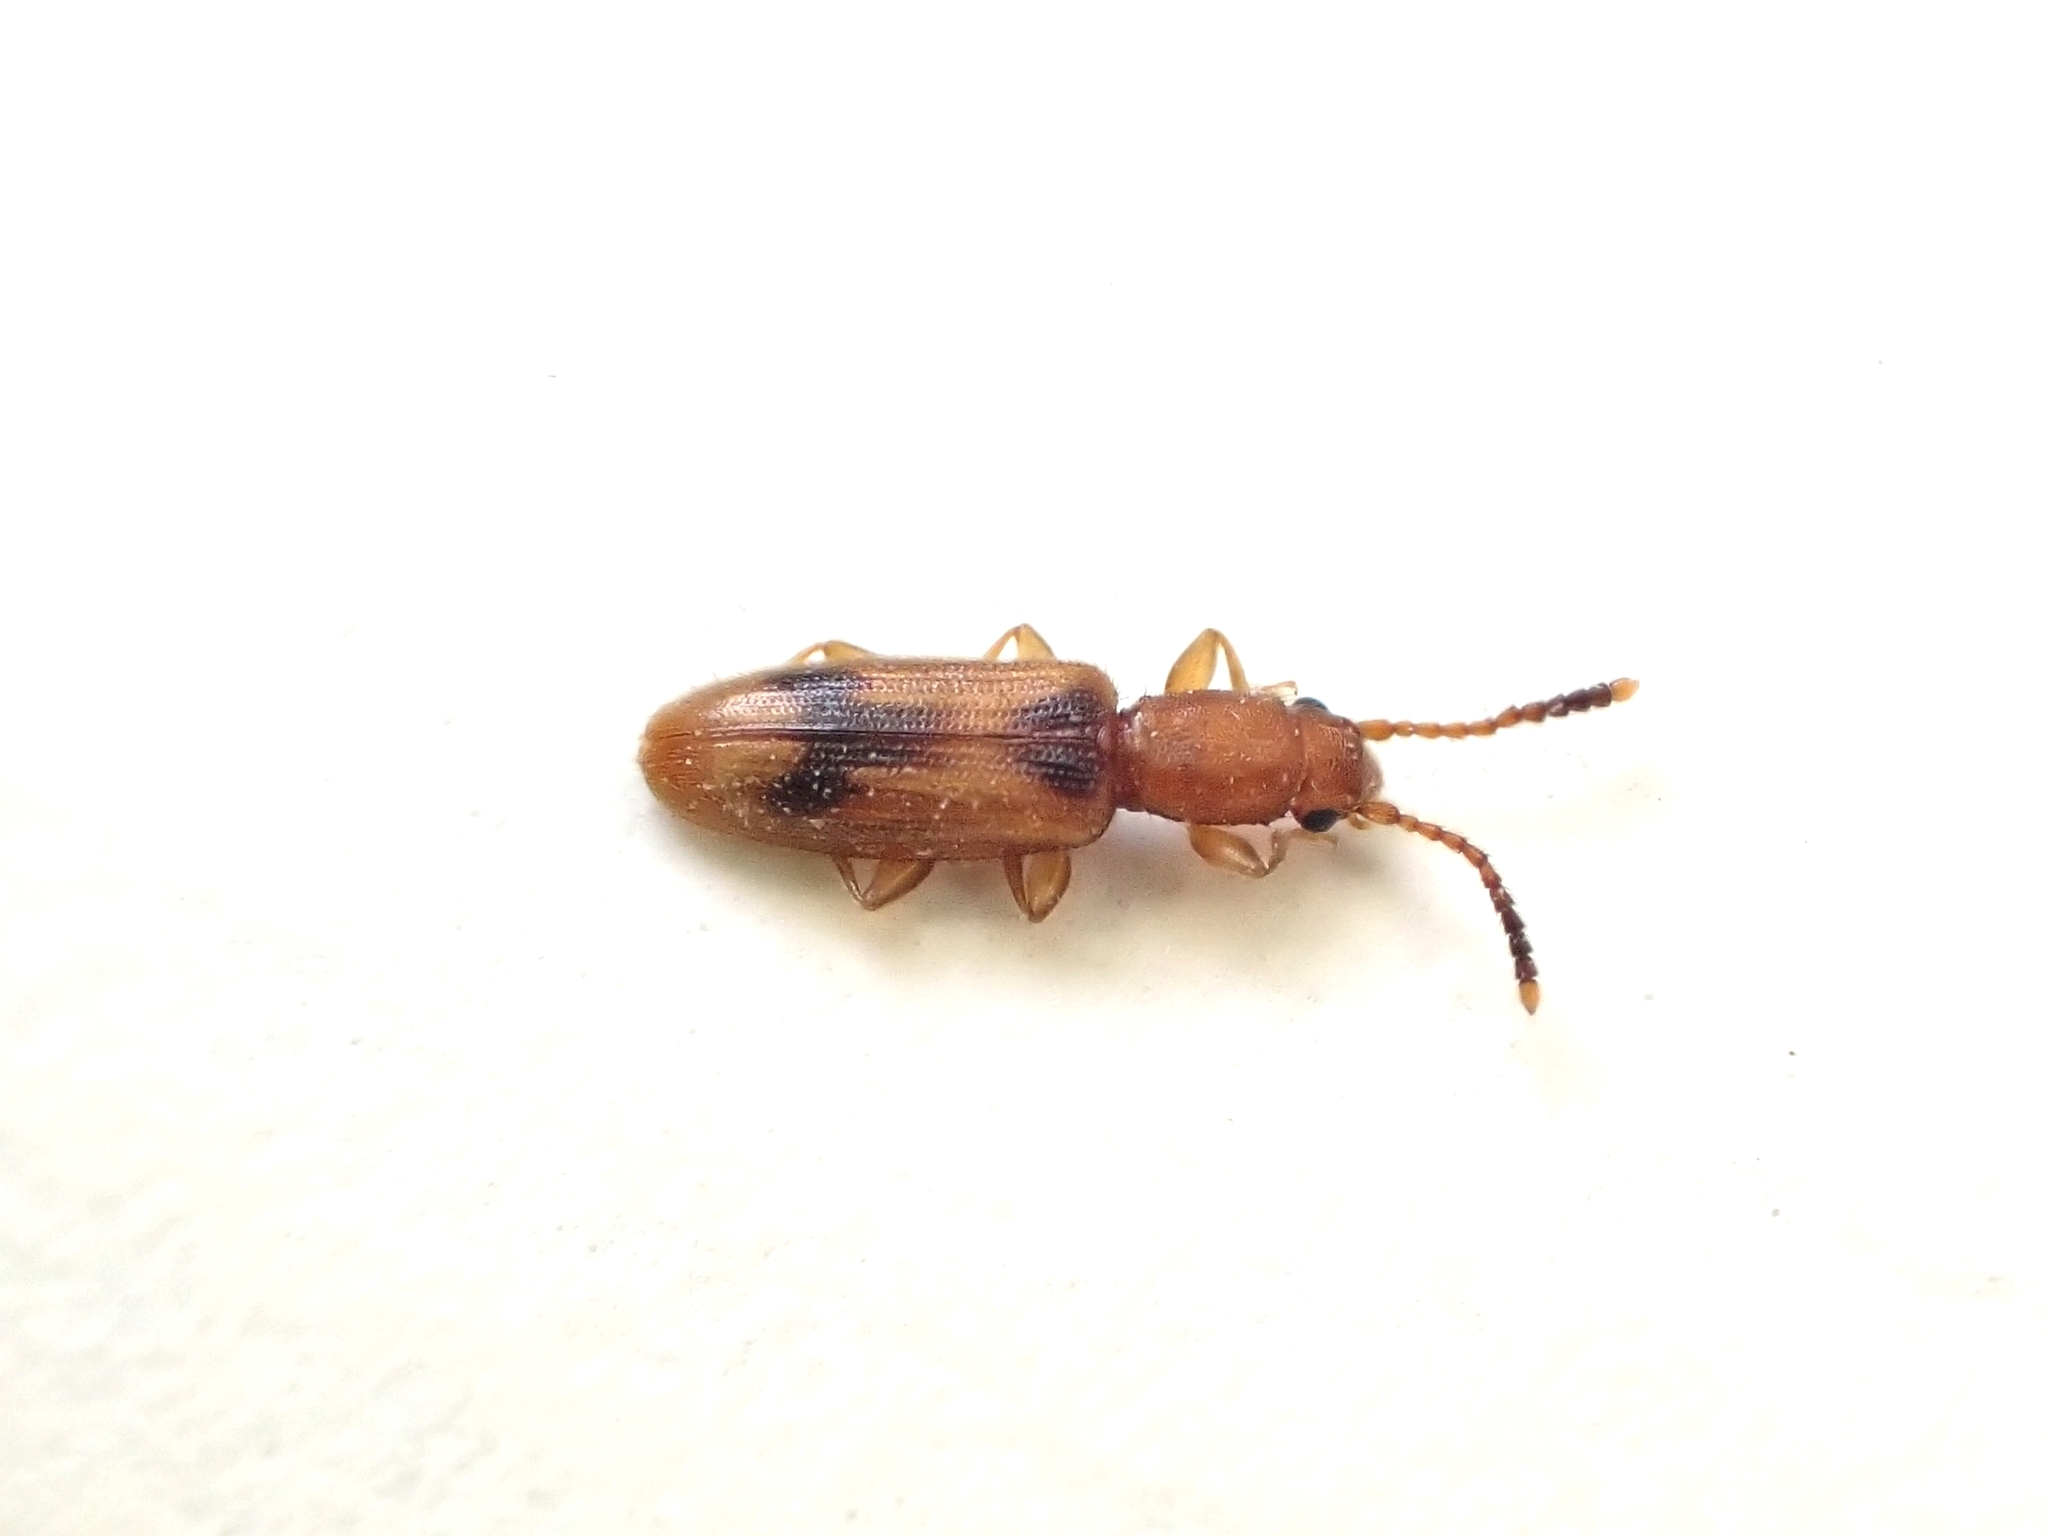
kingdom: Animalia
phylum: Arthropoda
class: Insecta
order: Coleoptera
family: Silvanidae
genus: Cryptamorpha
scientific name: Cryptamorpha desjardinsi
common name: Cryptamorpha
